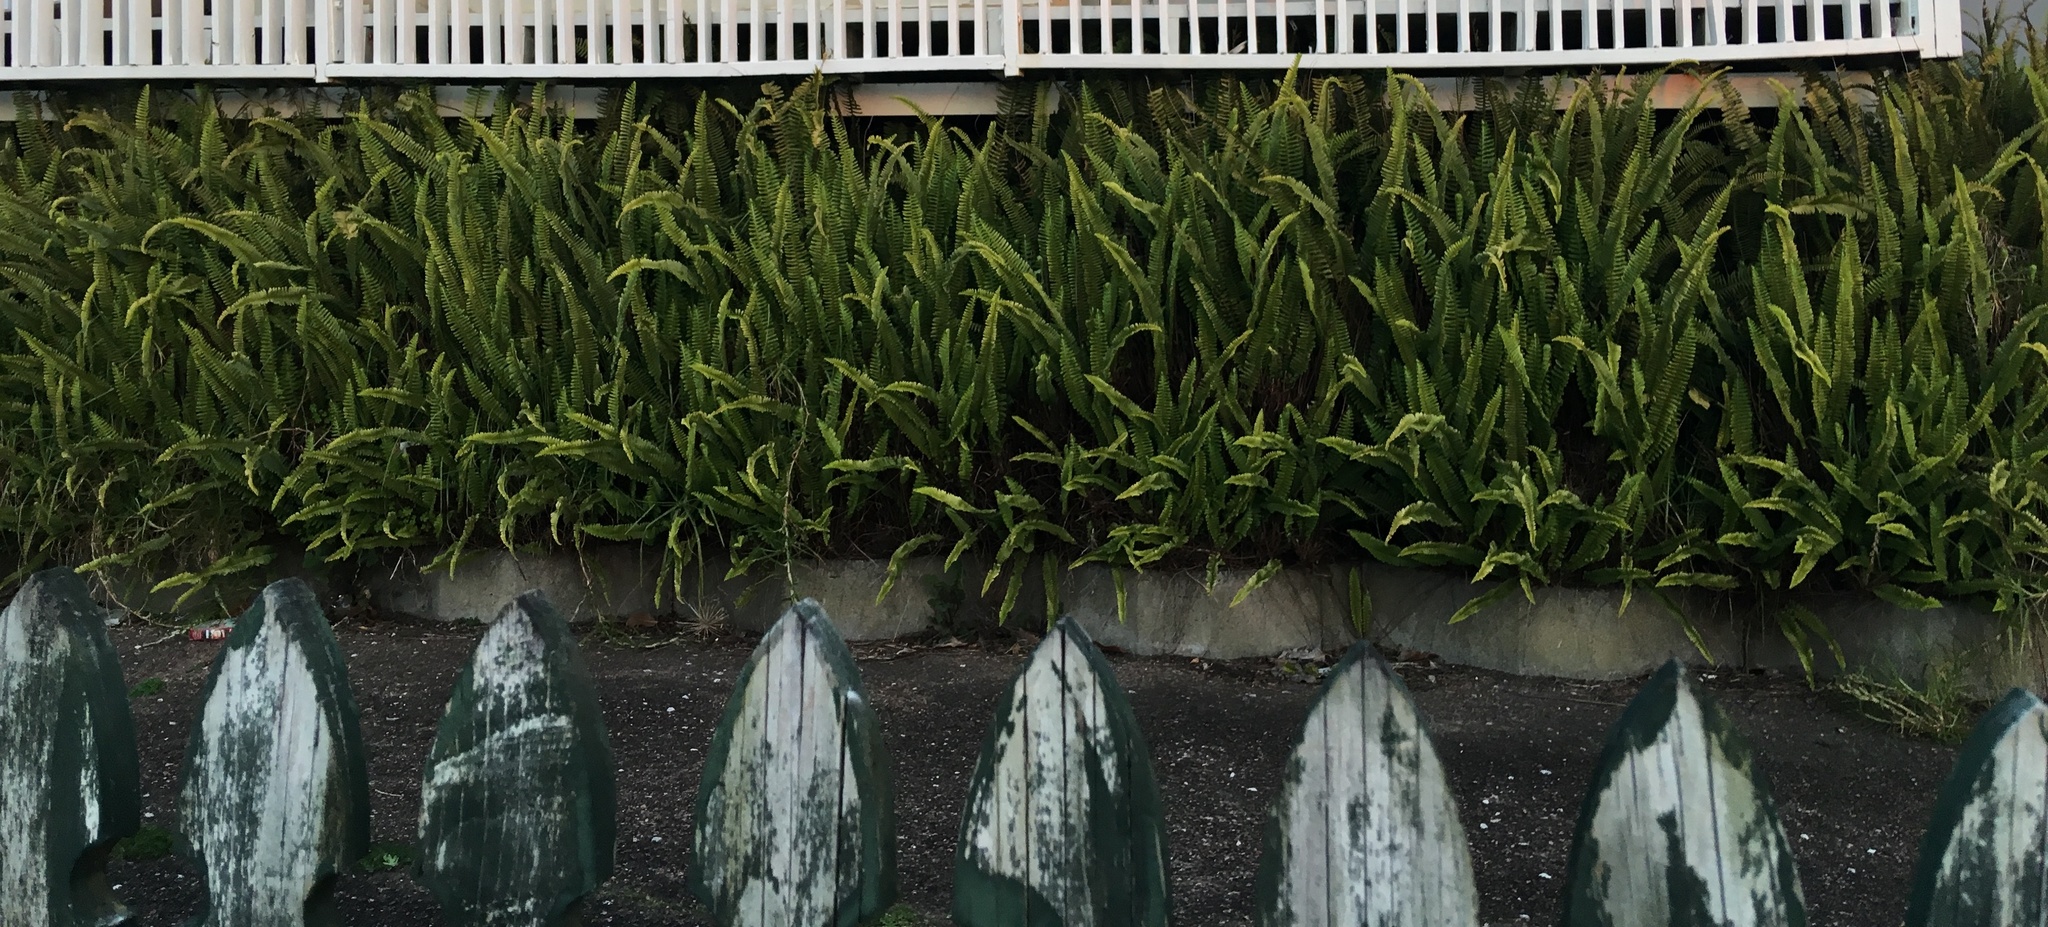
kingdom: Plantae
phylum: Tracheophyta
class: Polypodiopsida
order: Polypodiales
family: Nephrolepidaceae
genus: Nephrolepis
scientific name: Nephrolepis cordifolia
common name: Narrow swordfern
